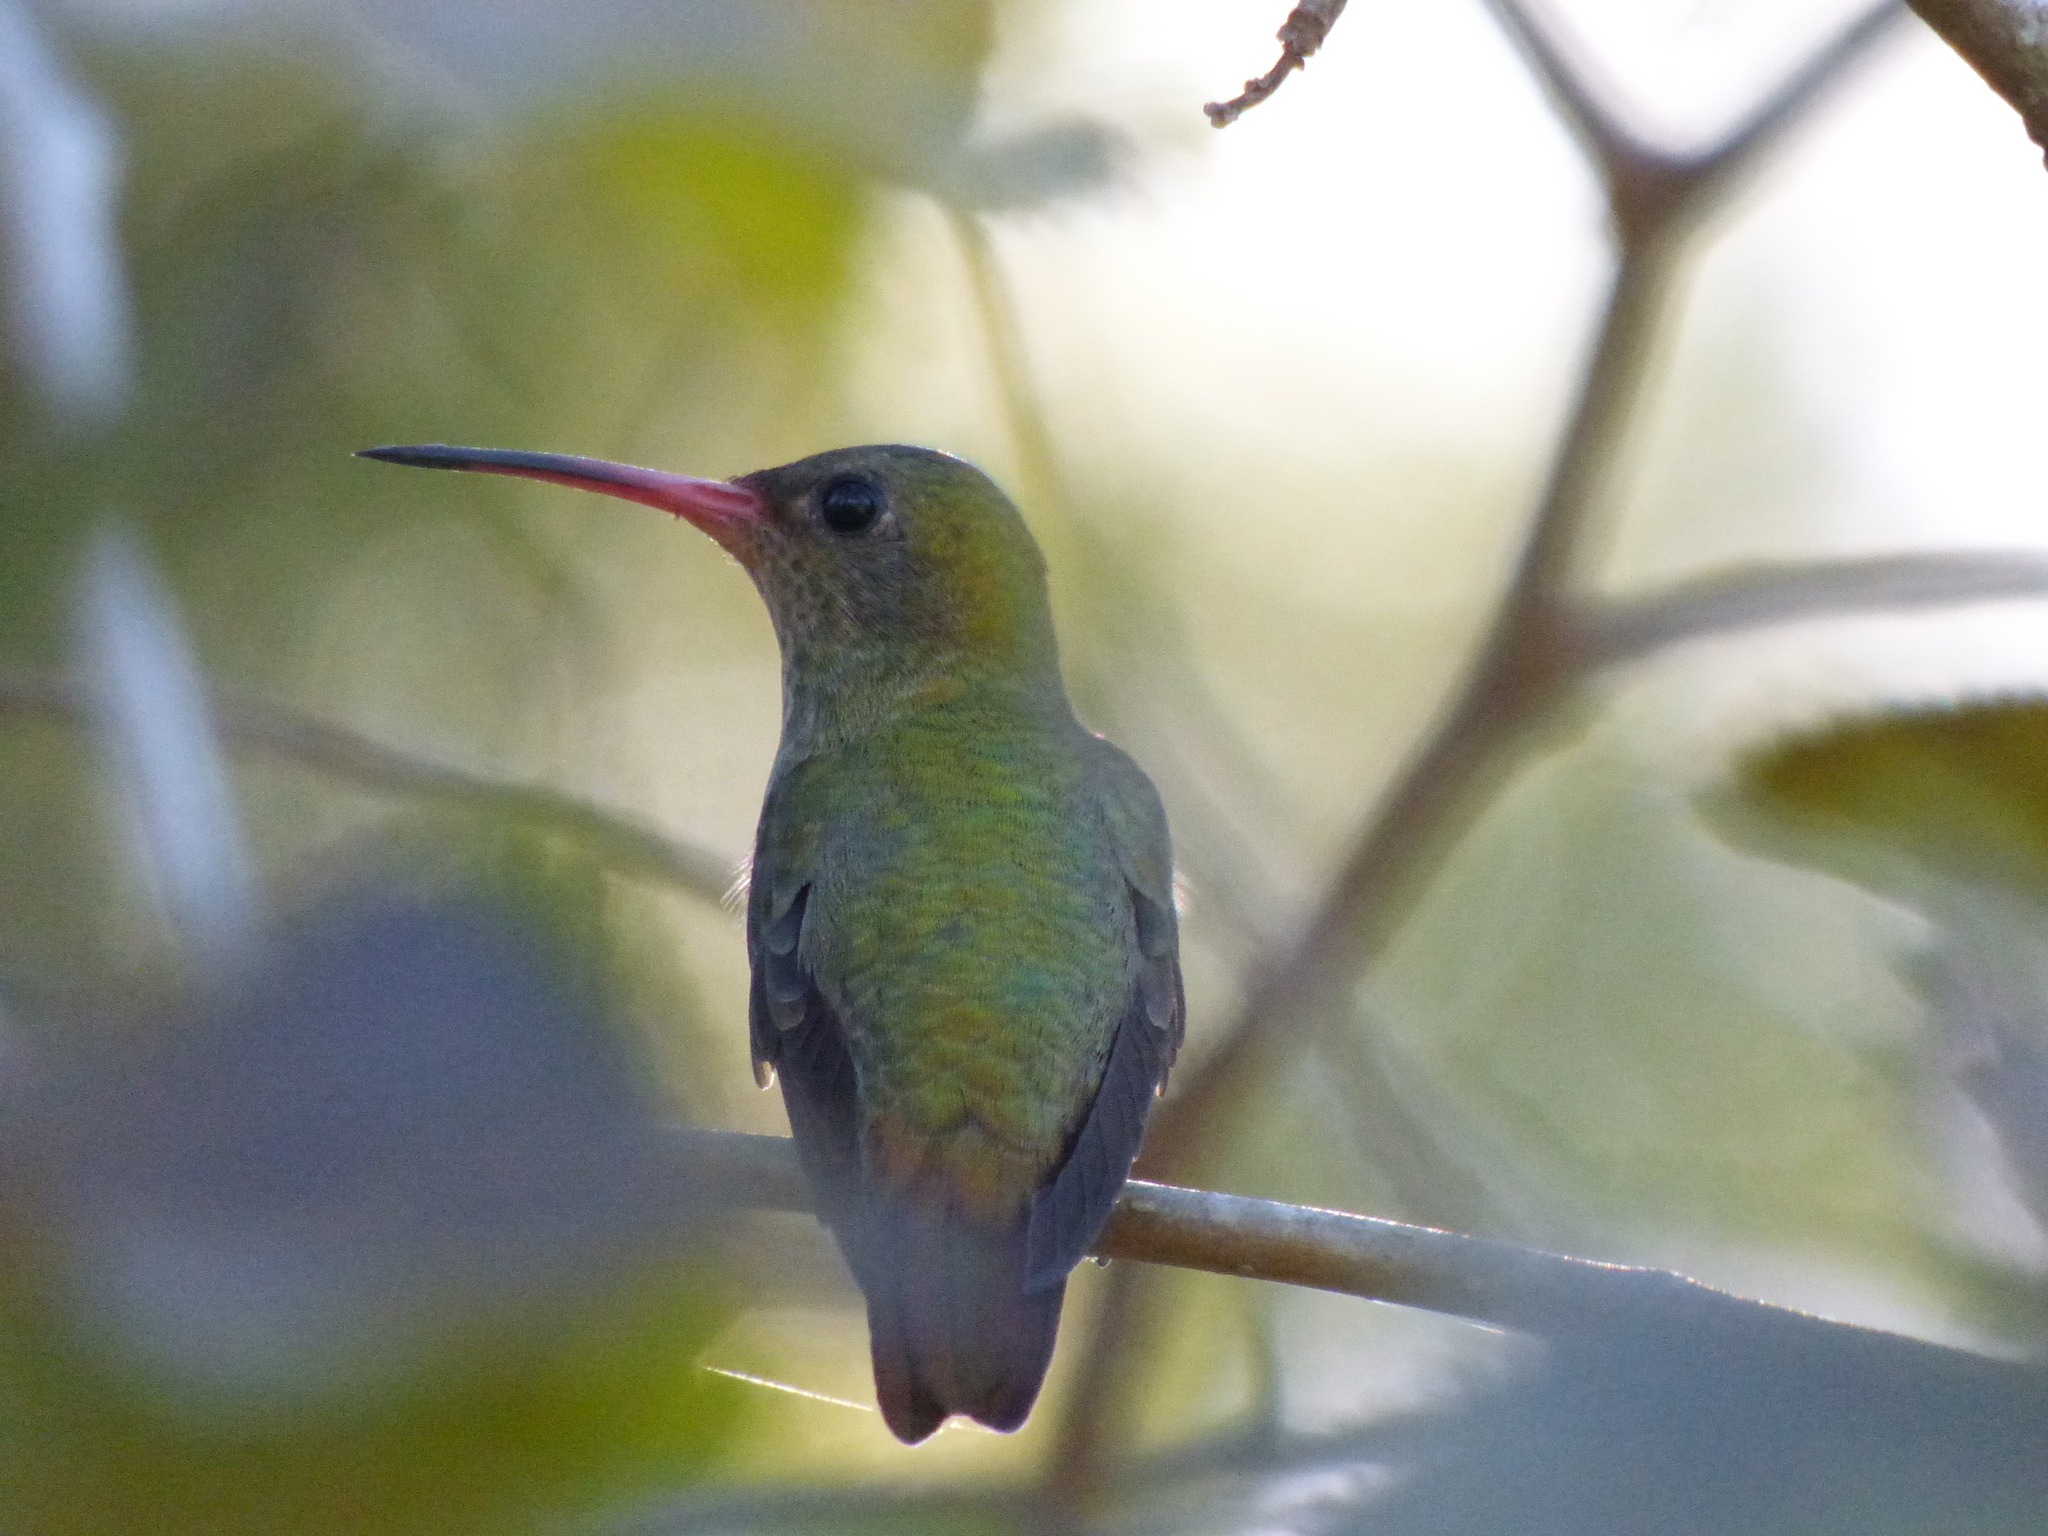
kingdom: Animalia
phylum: Chordata
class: Aves
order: Apodiformes
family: Trochilidae
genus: Hylocharis
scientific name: Hylocharis chrysura
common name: Gilded sapphire
